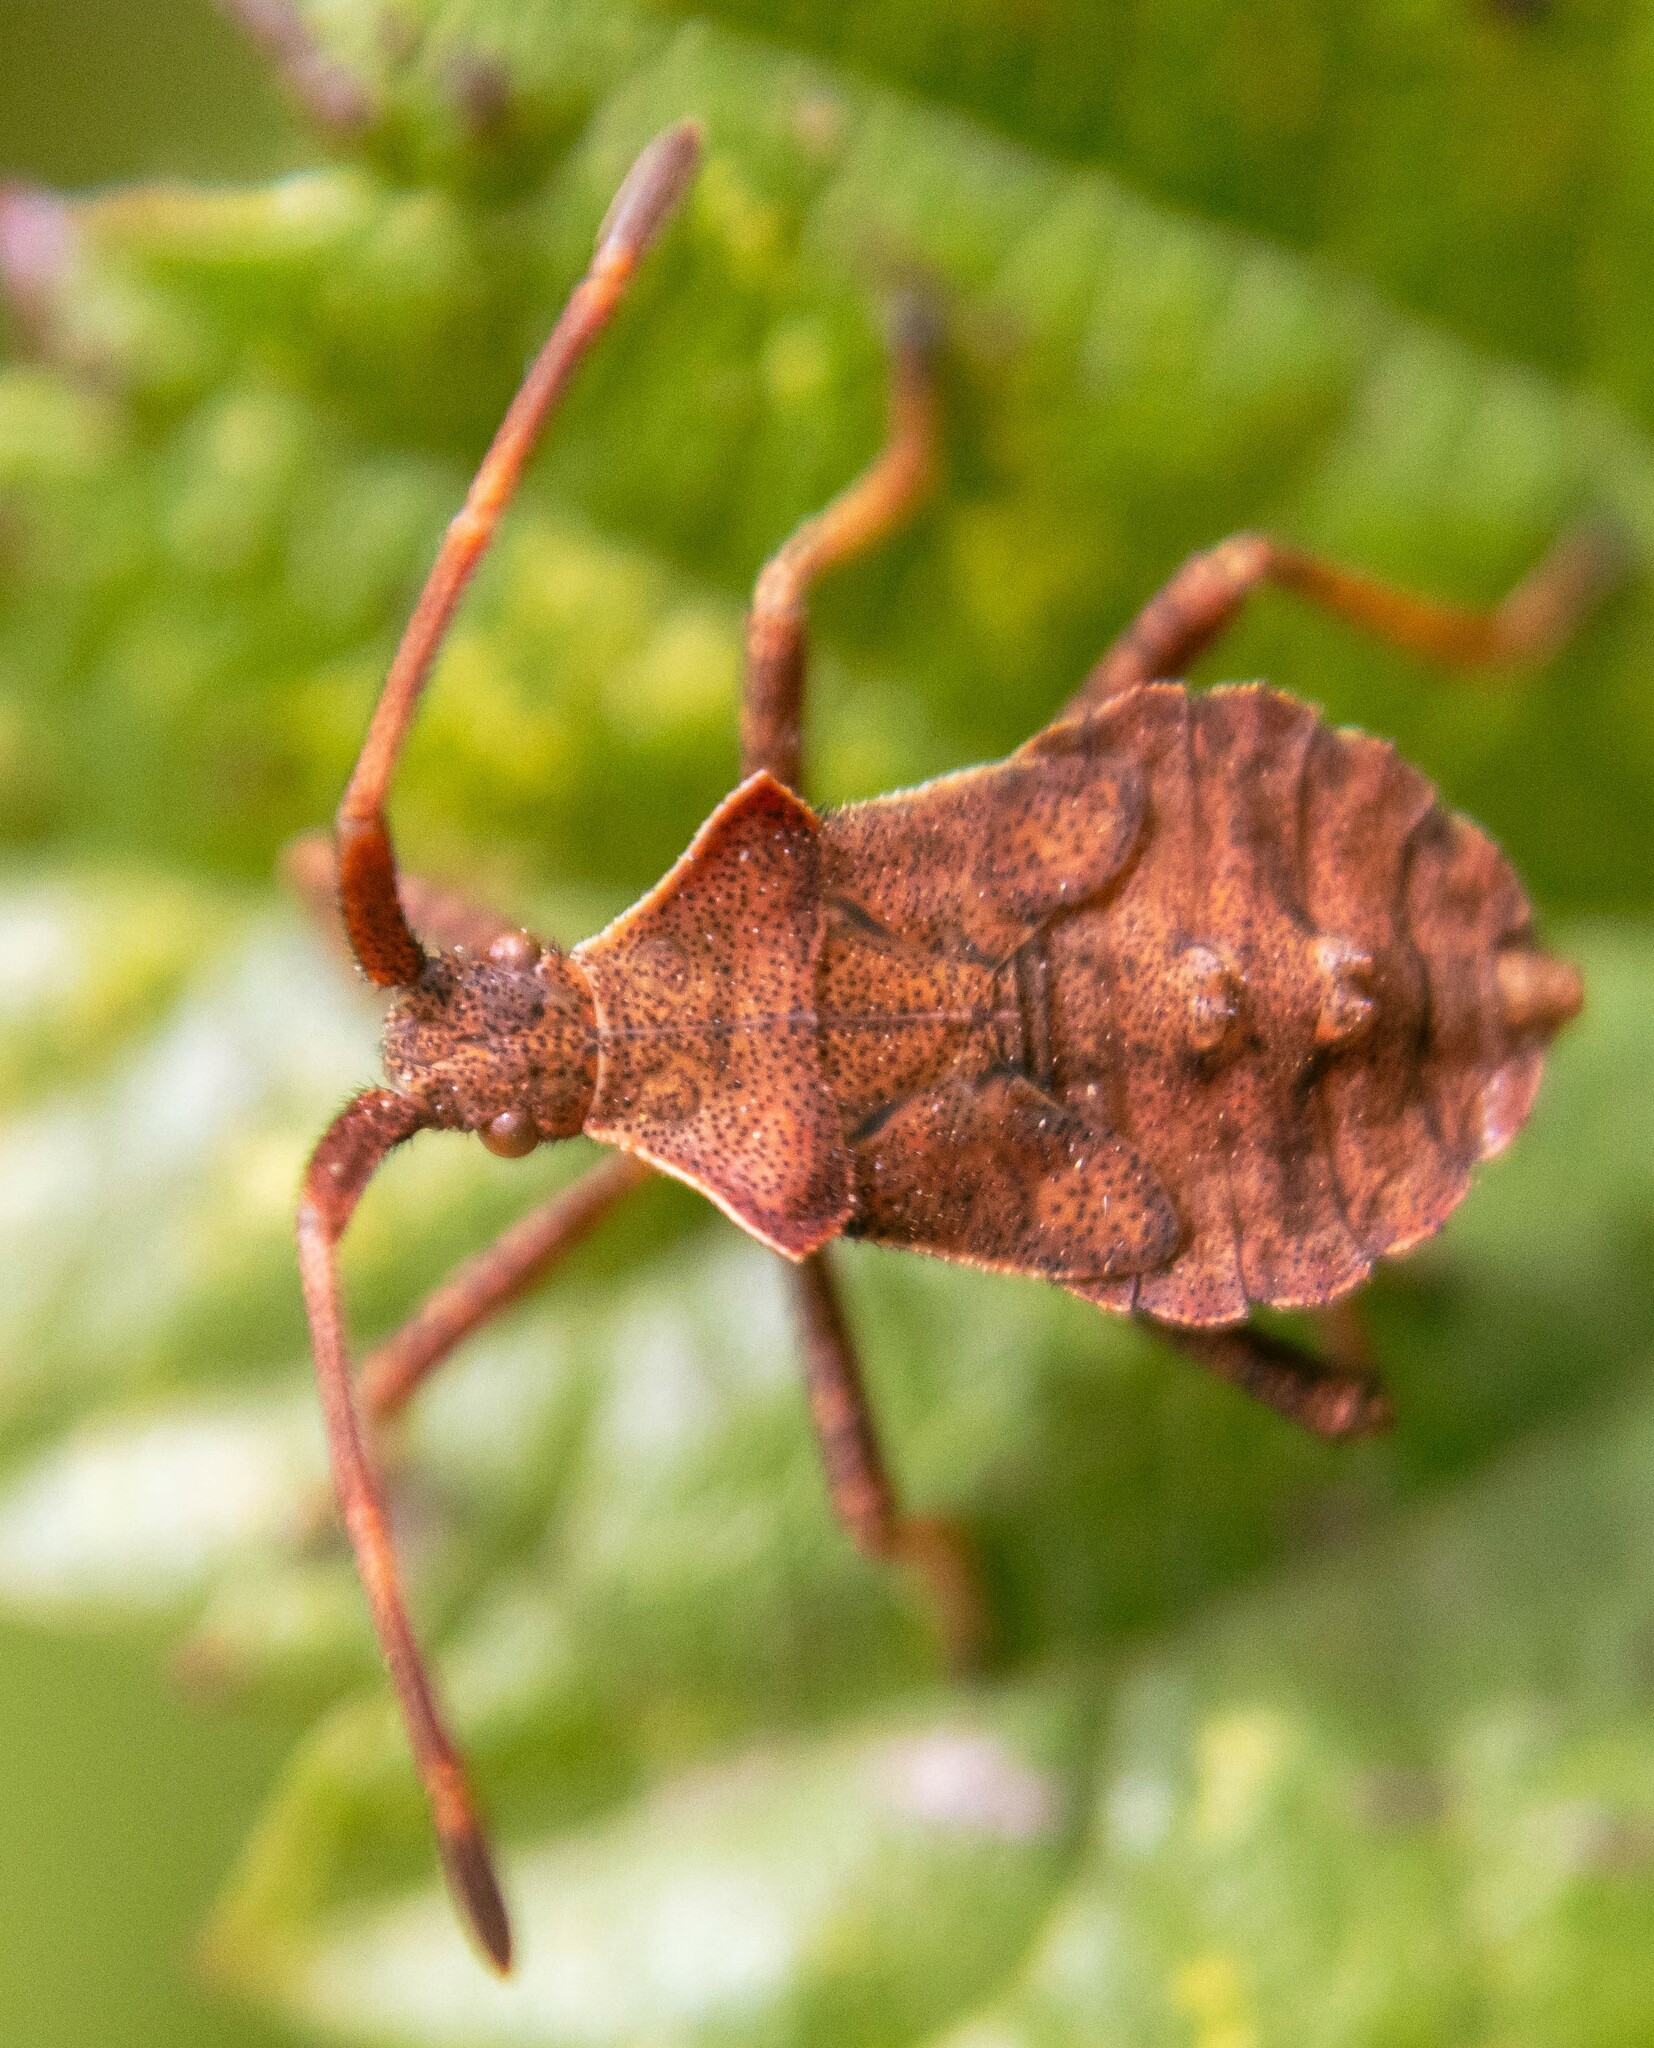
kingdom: Animalia
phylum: Arthropoda
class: Insecta
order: Hemiptera
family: Coreidae
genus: Coreus
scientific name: Coreus marginatus
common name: Dock bug
